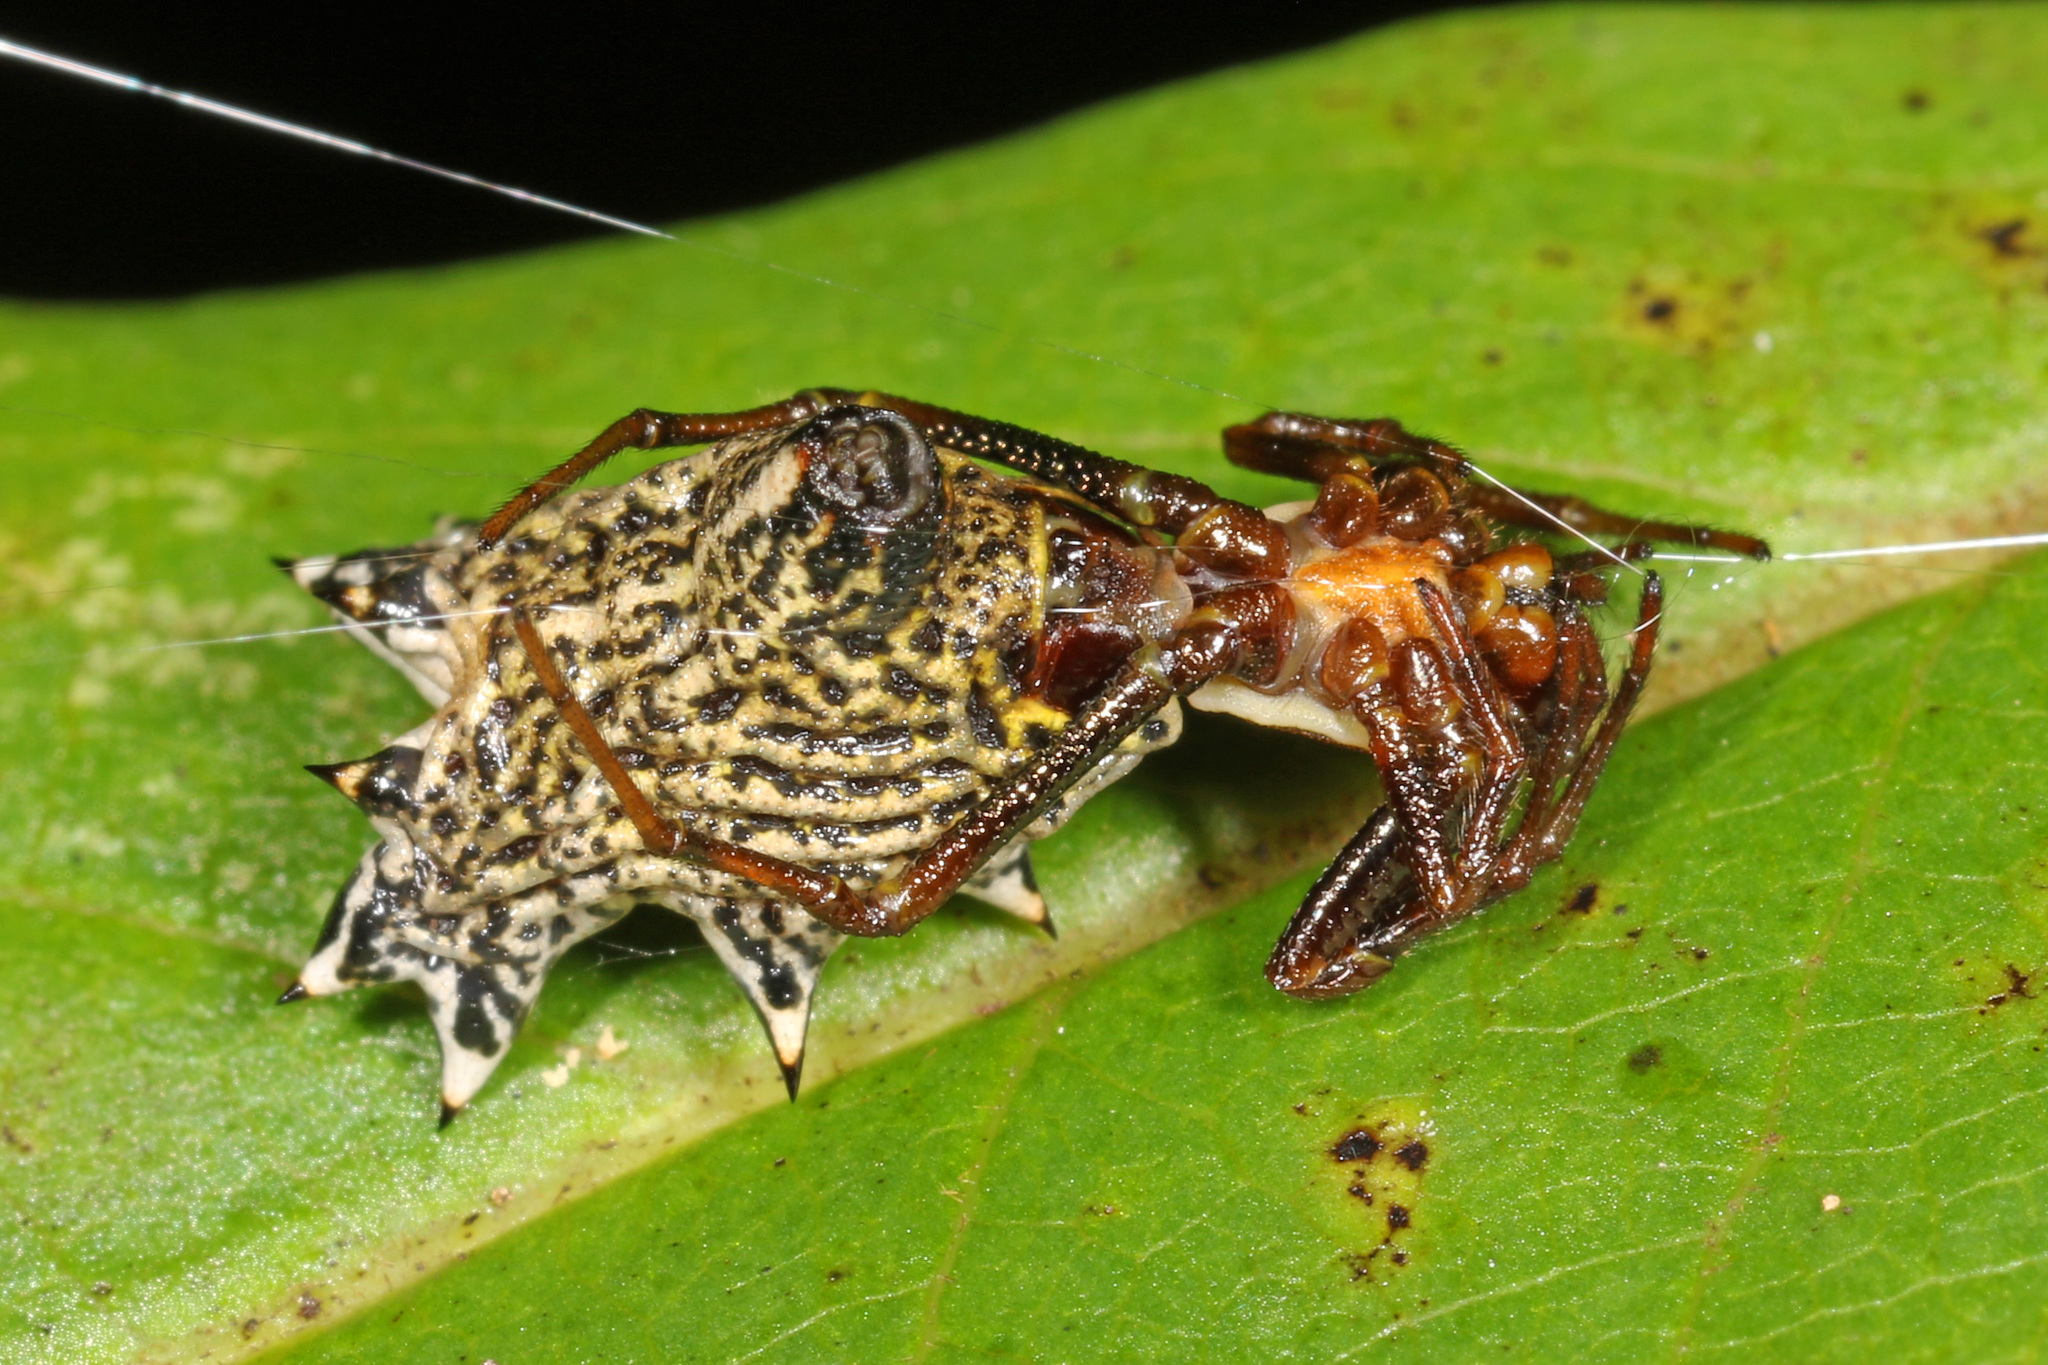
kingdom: Animalia
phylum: Arthropoda
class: Arachnida
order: Araneae
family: Araneidae
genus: Micrathena
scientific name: Micrathena gracilis
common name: Orb weavers
